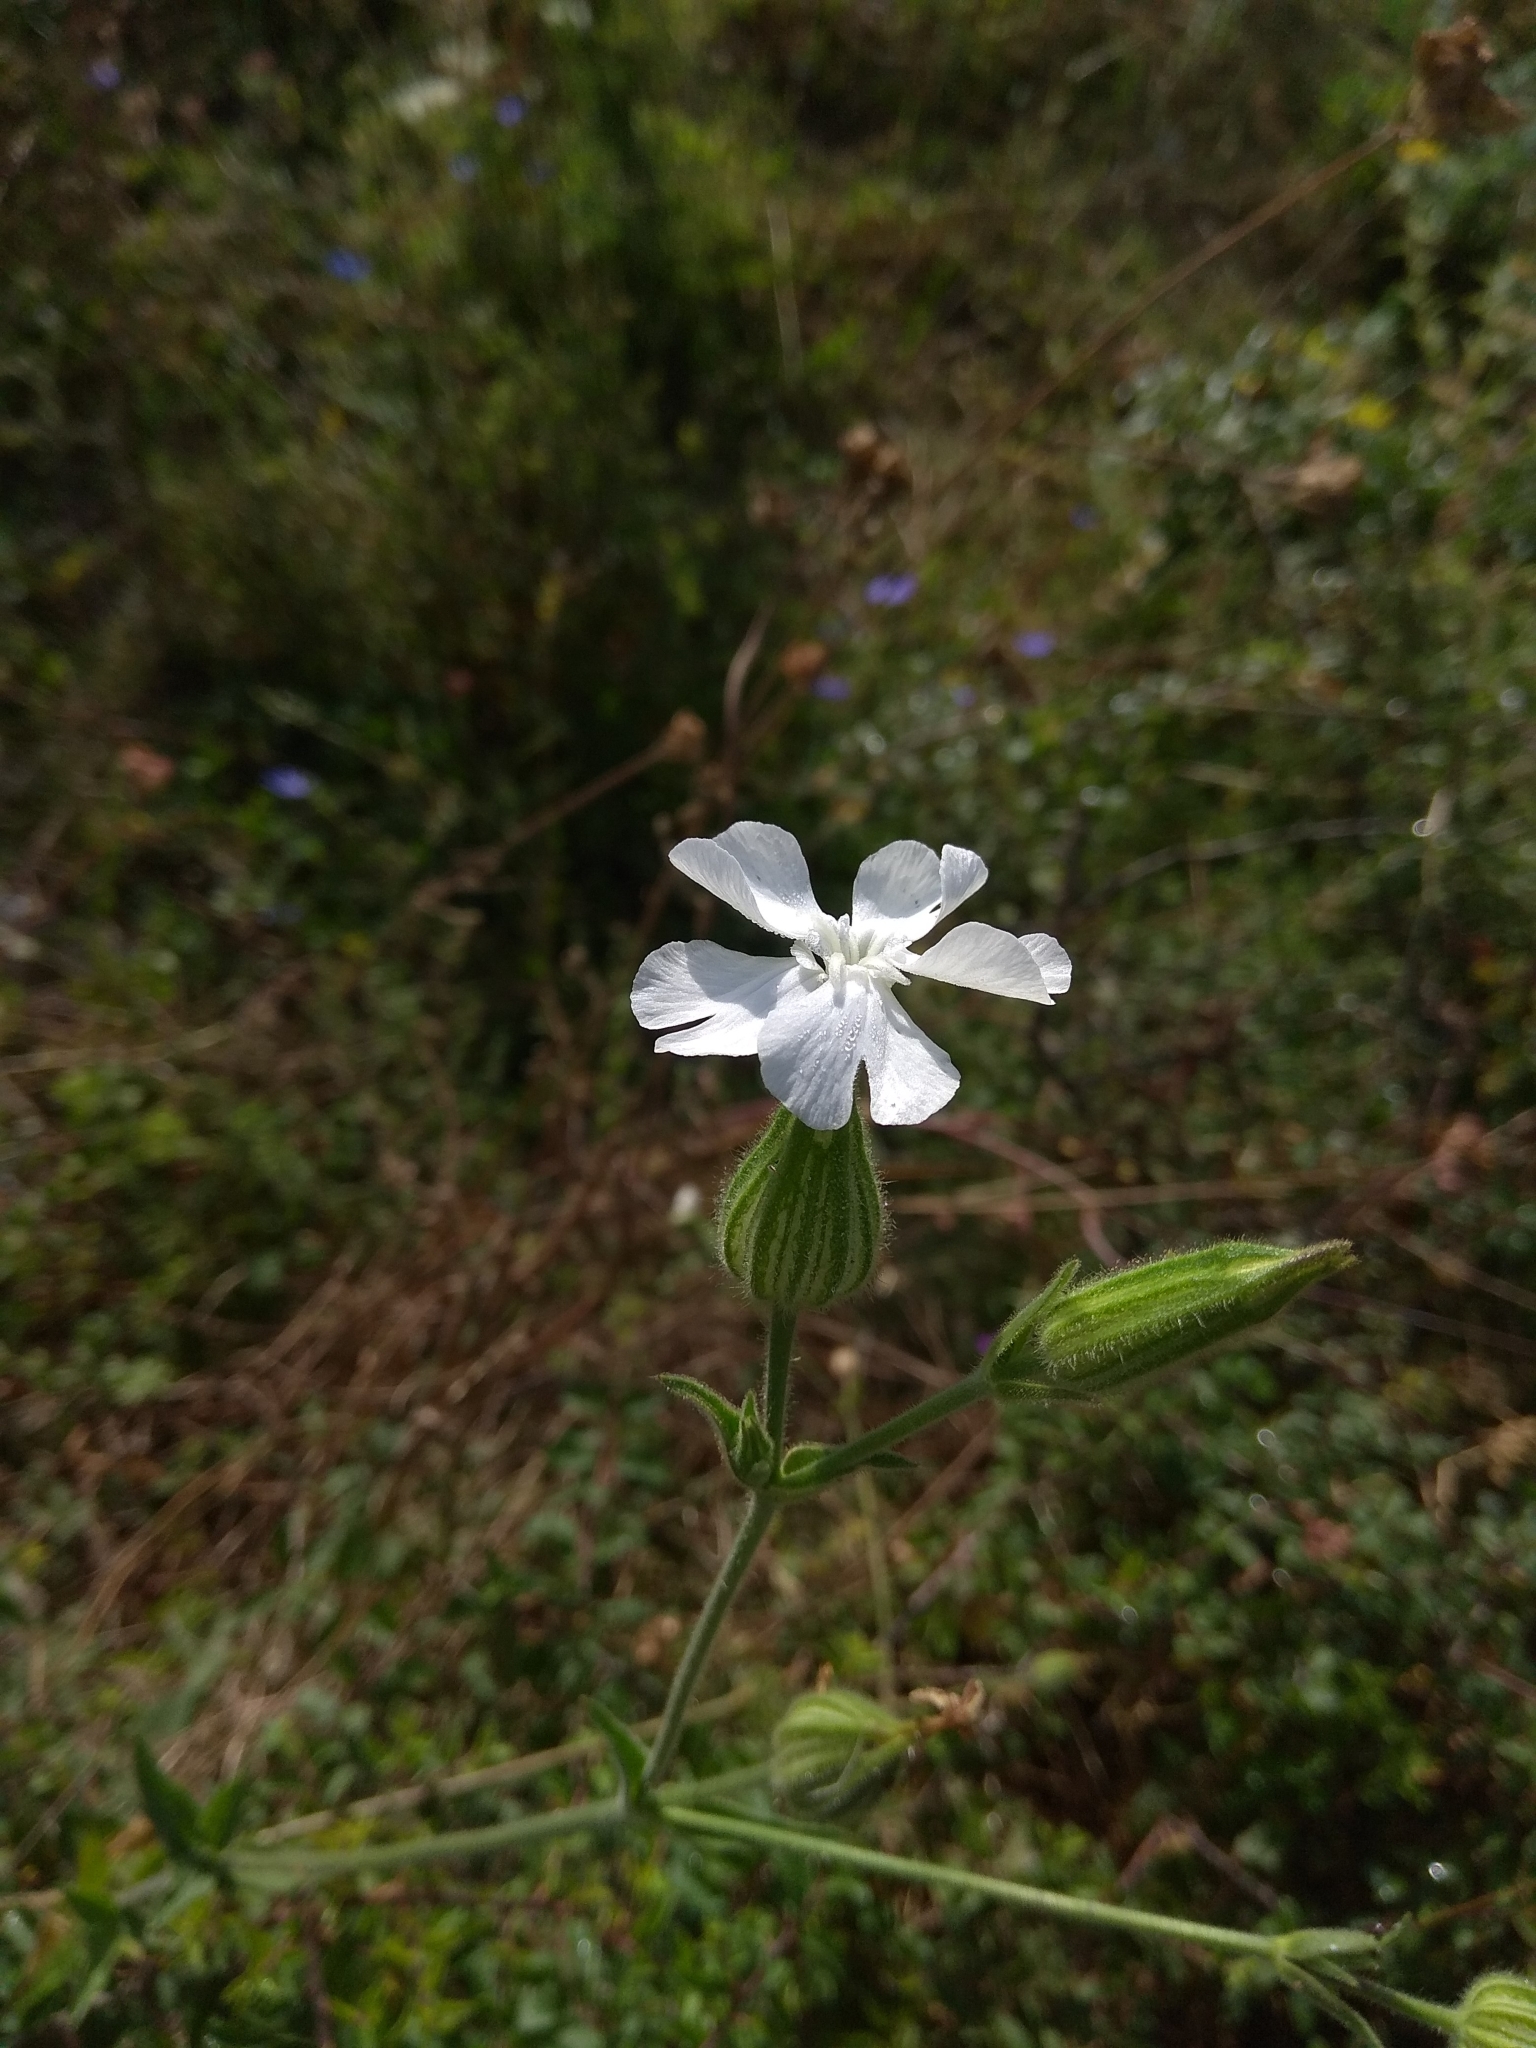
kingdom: Plantae
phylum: Tracheophyta
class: Magnoliopsida
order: Caryophyllales
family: Caryophyllaceae
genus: Silene
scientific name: Silene latifolia
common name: White campion
